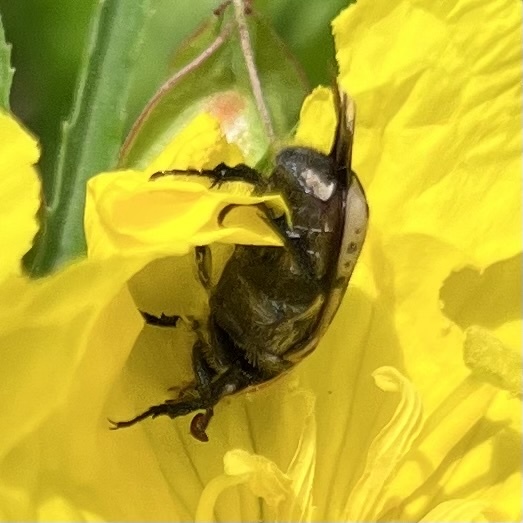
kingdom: Animalia
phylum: Arthropoda
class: Insecta
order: Coleoptera
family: Scarabaeidae
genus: Euphoria
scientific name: Euphoria kernii
